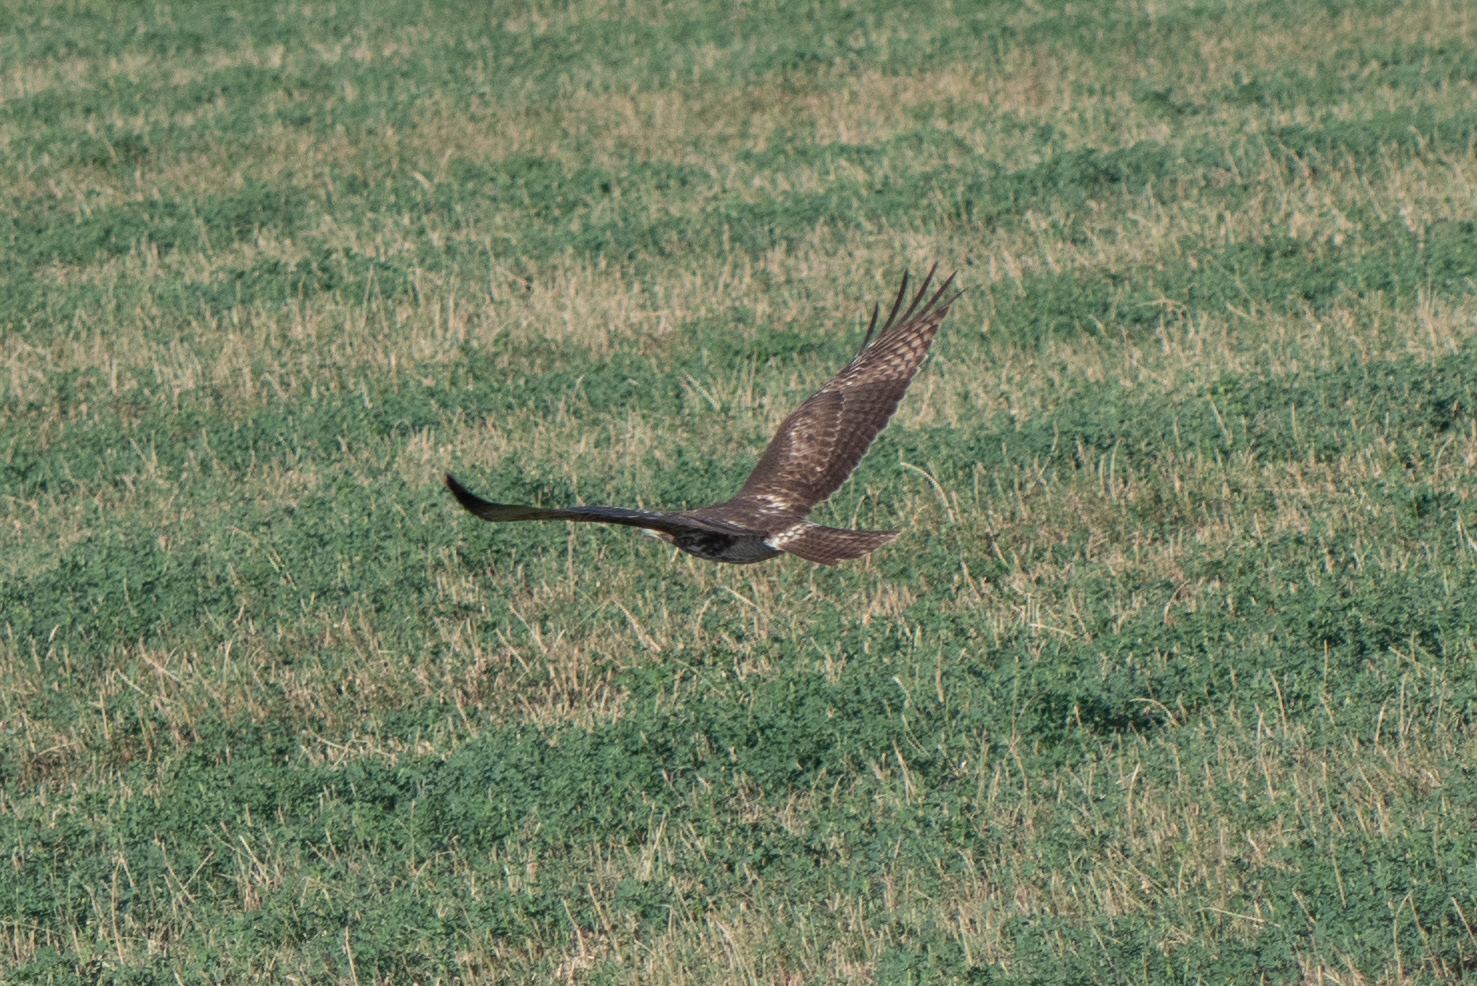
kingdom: Animalia
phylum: Chordata
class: Aves
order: Accipitriformes
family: Accipitridae
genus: Buteo
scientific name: Buteo jamaicensis
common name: Red-tailed hawk
